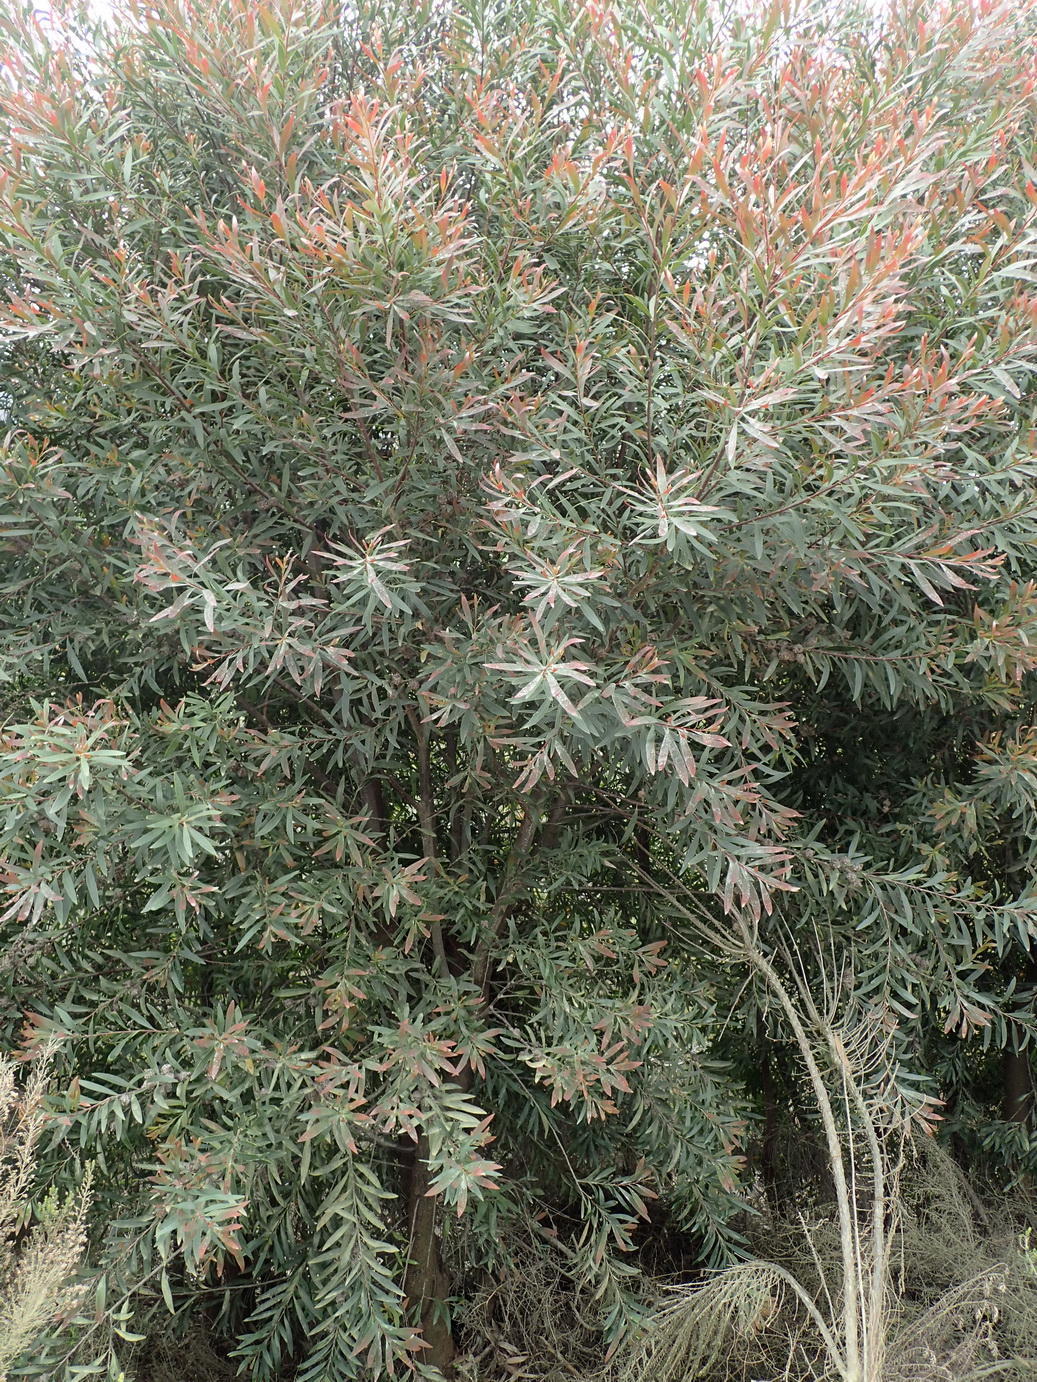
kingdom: Plantae
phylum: Tracheophyta
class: Magnoliopsida
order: Proteales
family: Proteaceae
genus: Hakea
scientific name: Hakea salicifolia
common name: Willow hakea
